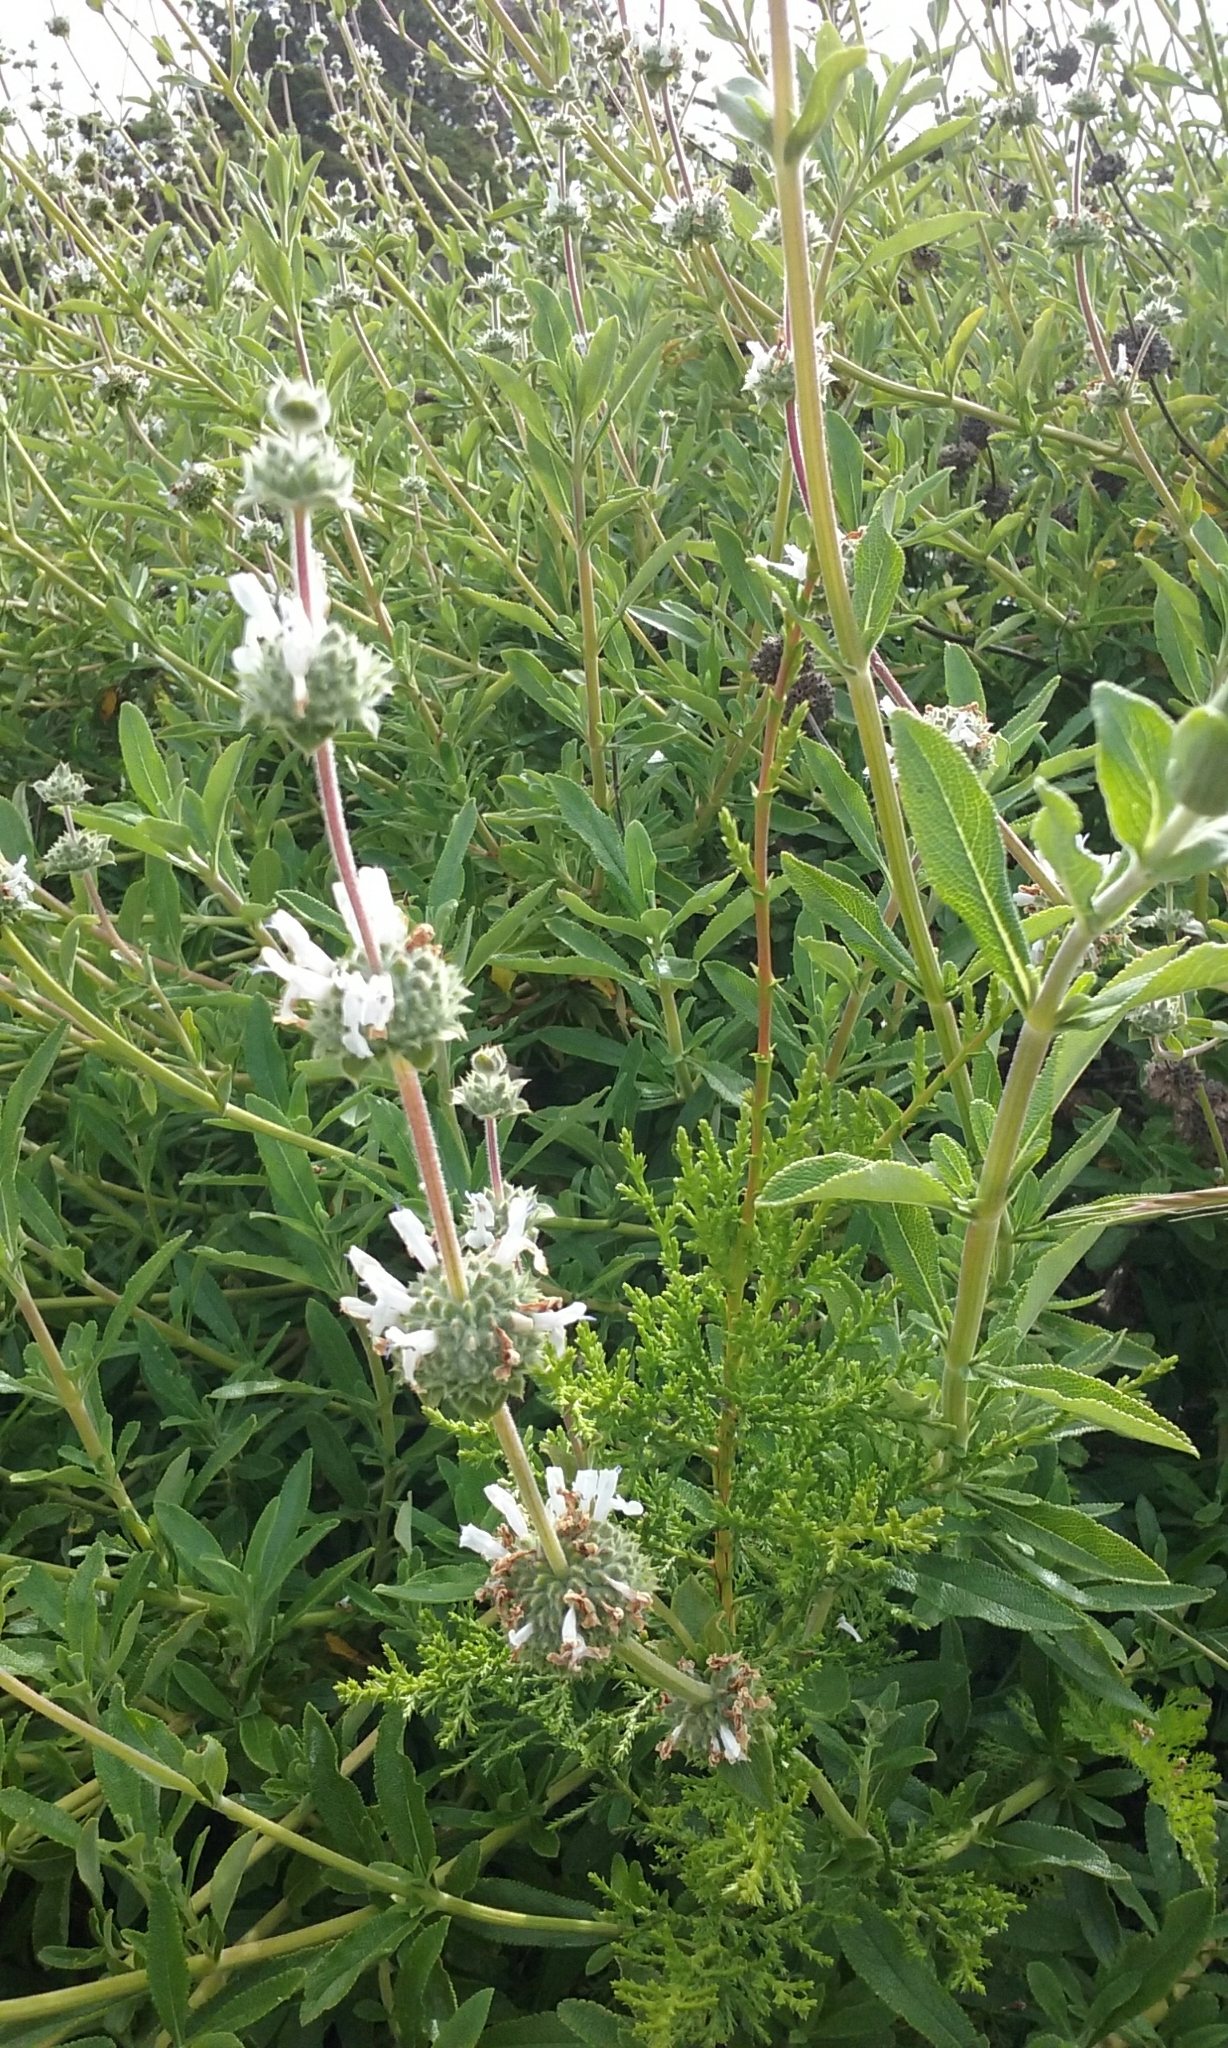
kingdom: Plantae
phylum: Tracheophyta
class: Magnoliopsida
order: Lamiales
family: Lamiaceae
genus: Salvia
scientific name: Salvia mellifera
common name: Black sage
